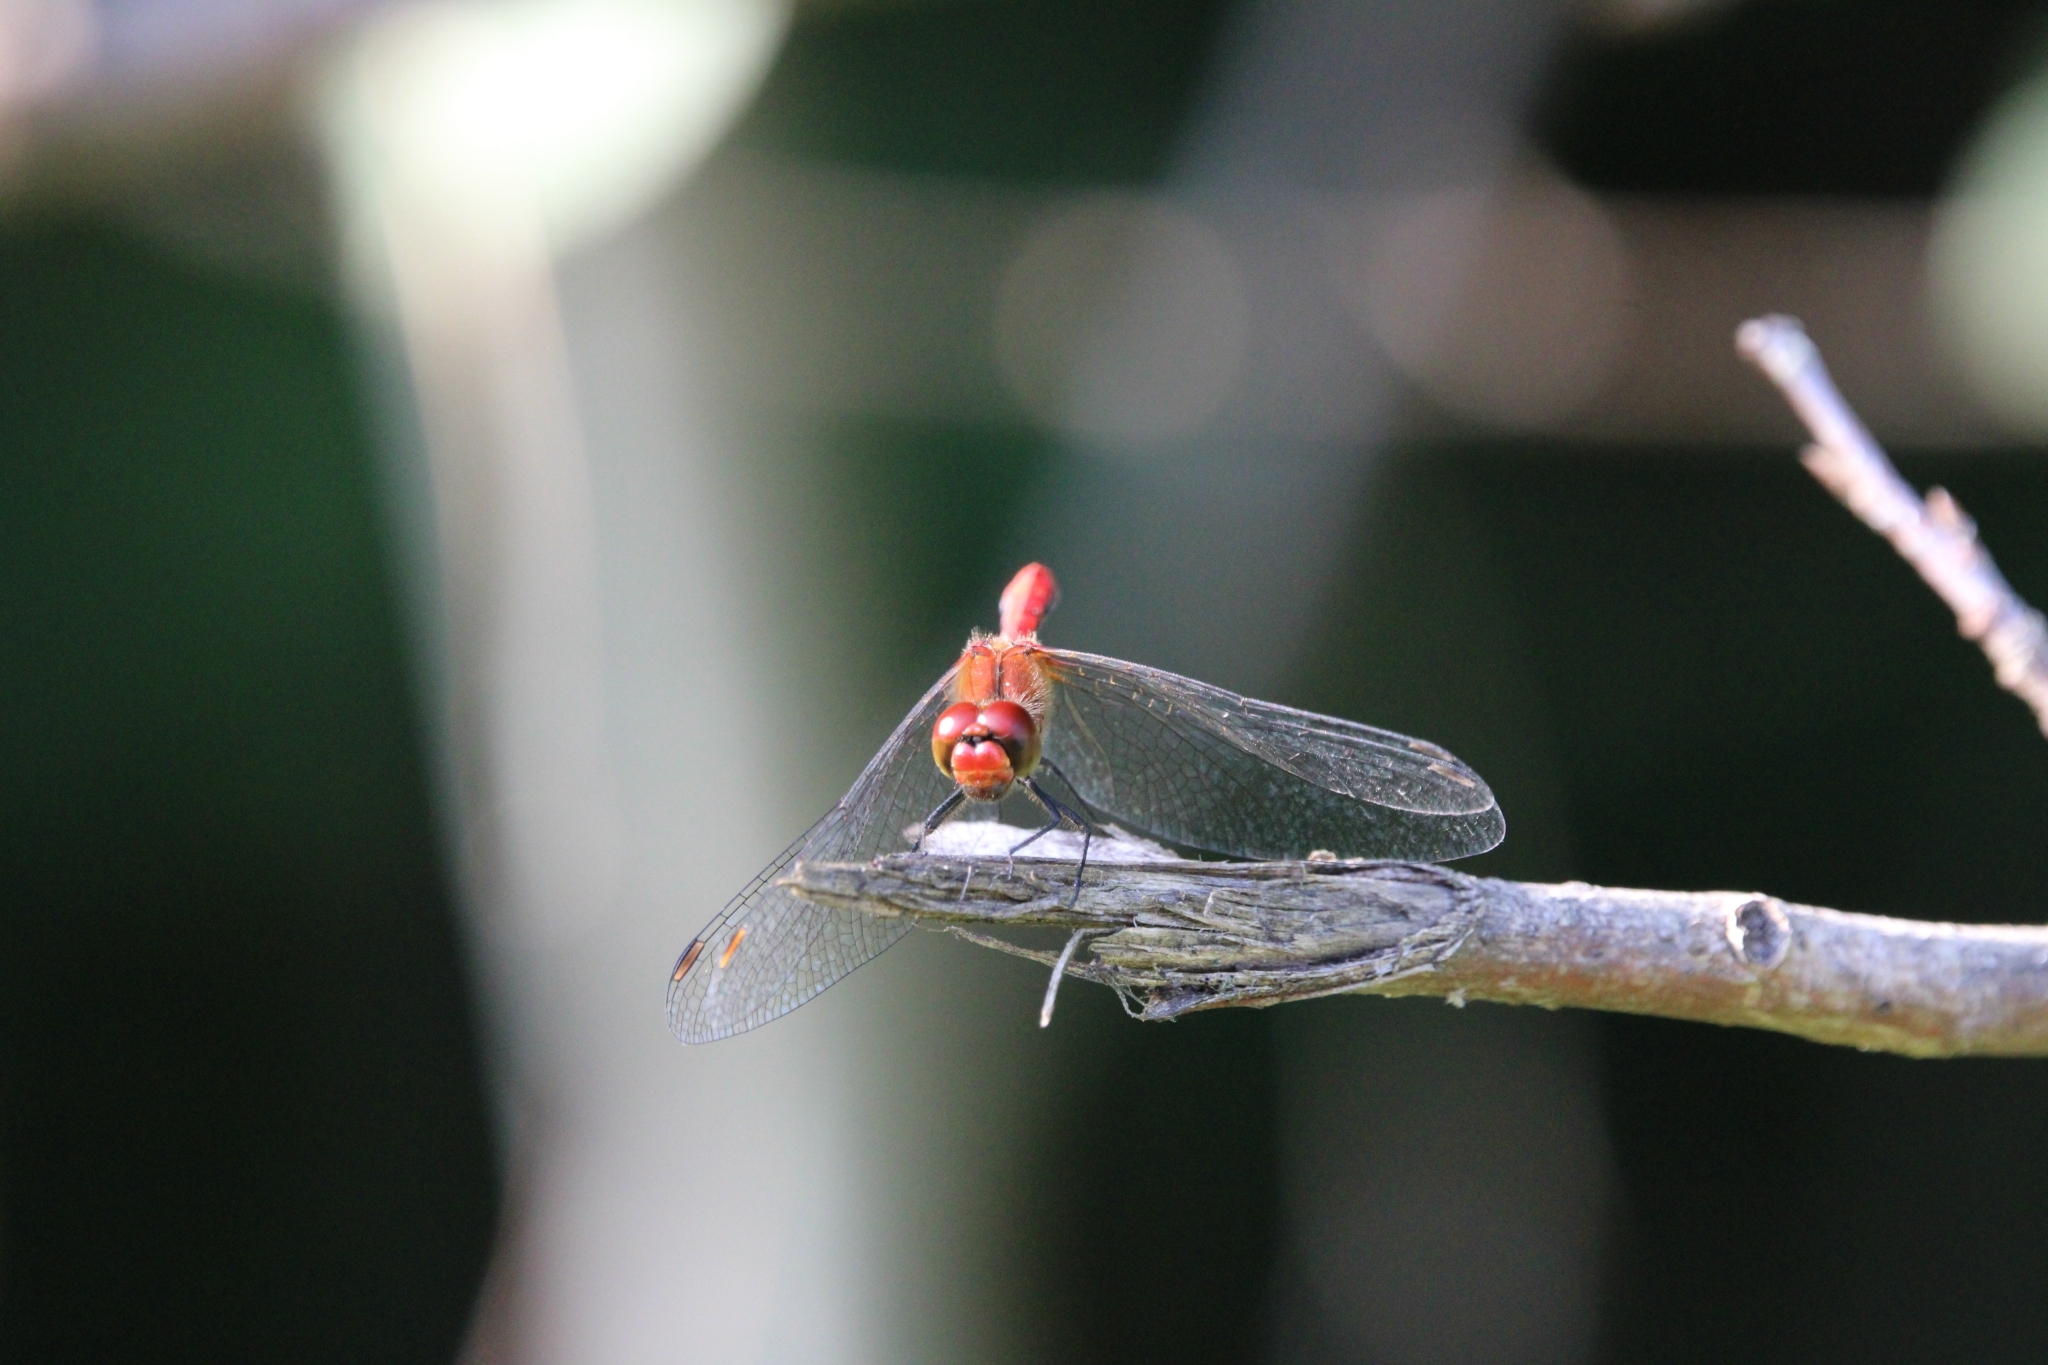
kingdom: Animalia
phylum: Arthropoda
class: Insecta
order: Odonata
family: Libellulidae
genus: Sympetrum
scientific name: Sympetrum sanguineum
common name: Ruddy darter
